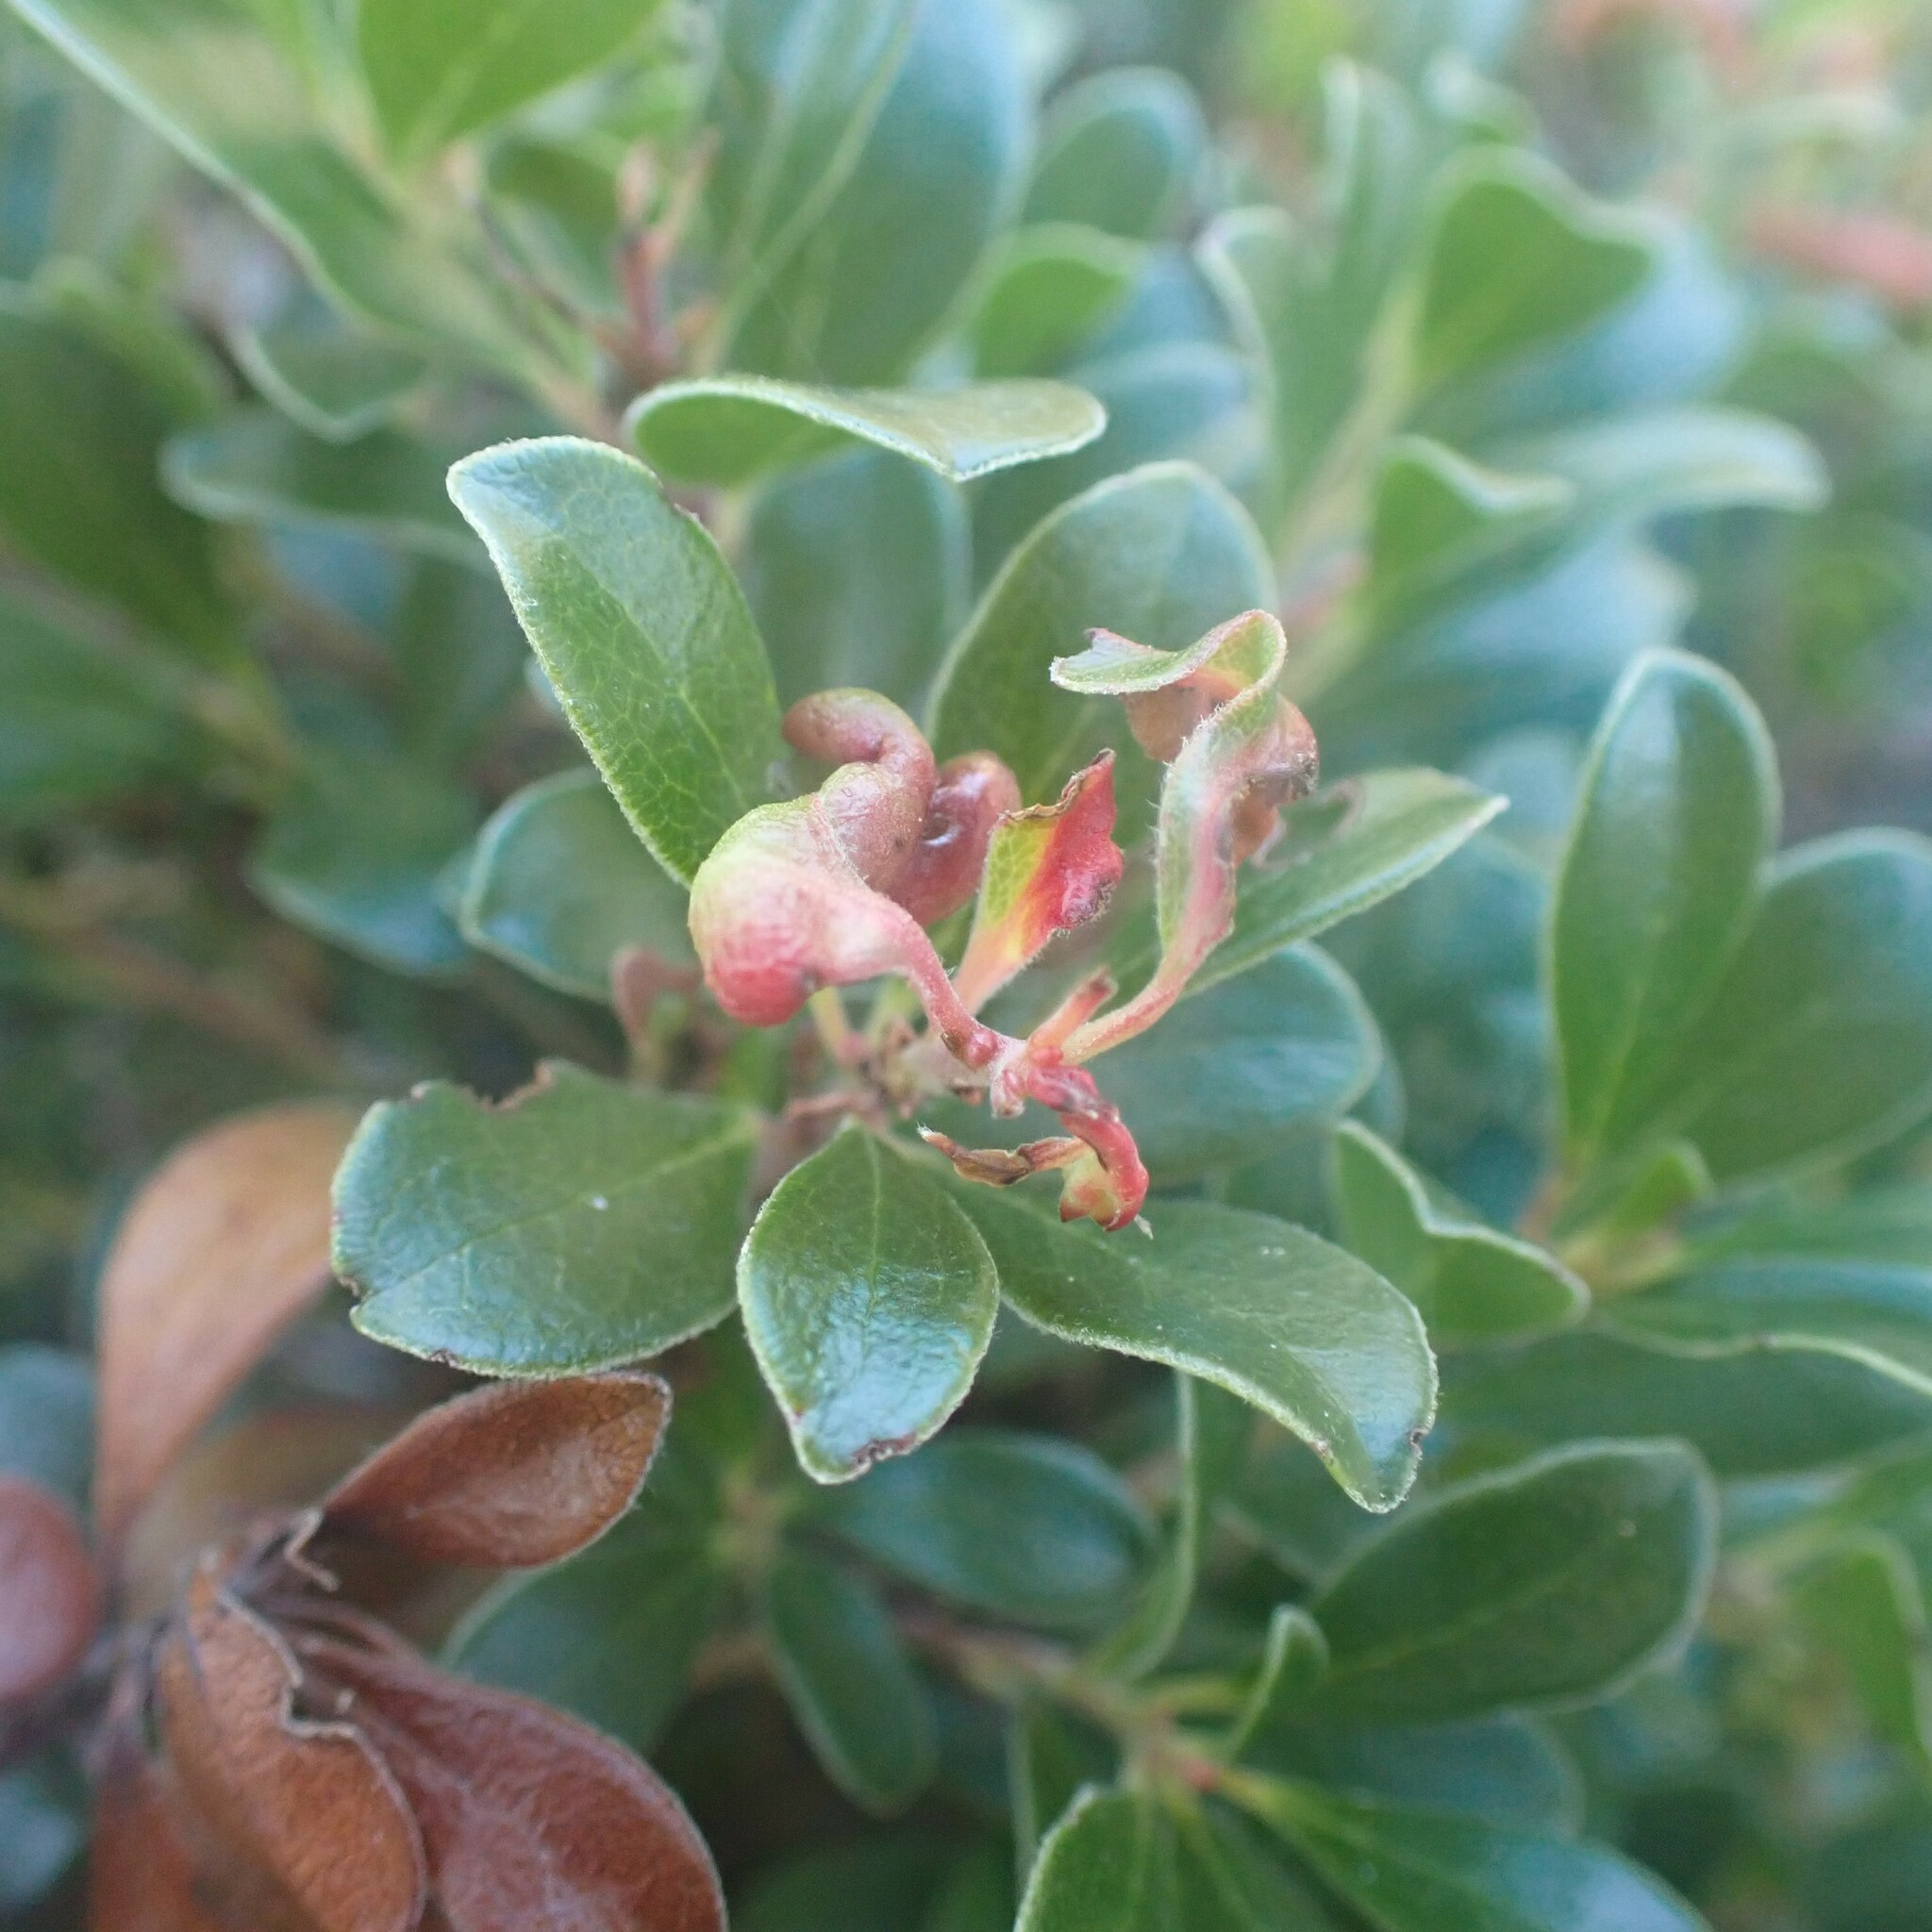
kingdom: Animalia
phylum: Arthropoda
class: Insecta
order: Hemiptera
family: Aphididae
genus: Tamalia
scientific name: Tamalia coweni
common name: Manzanita leafgall aphid
